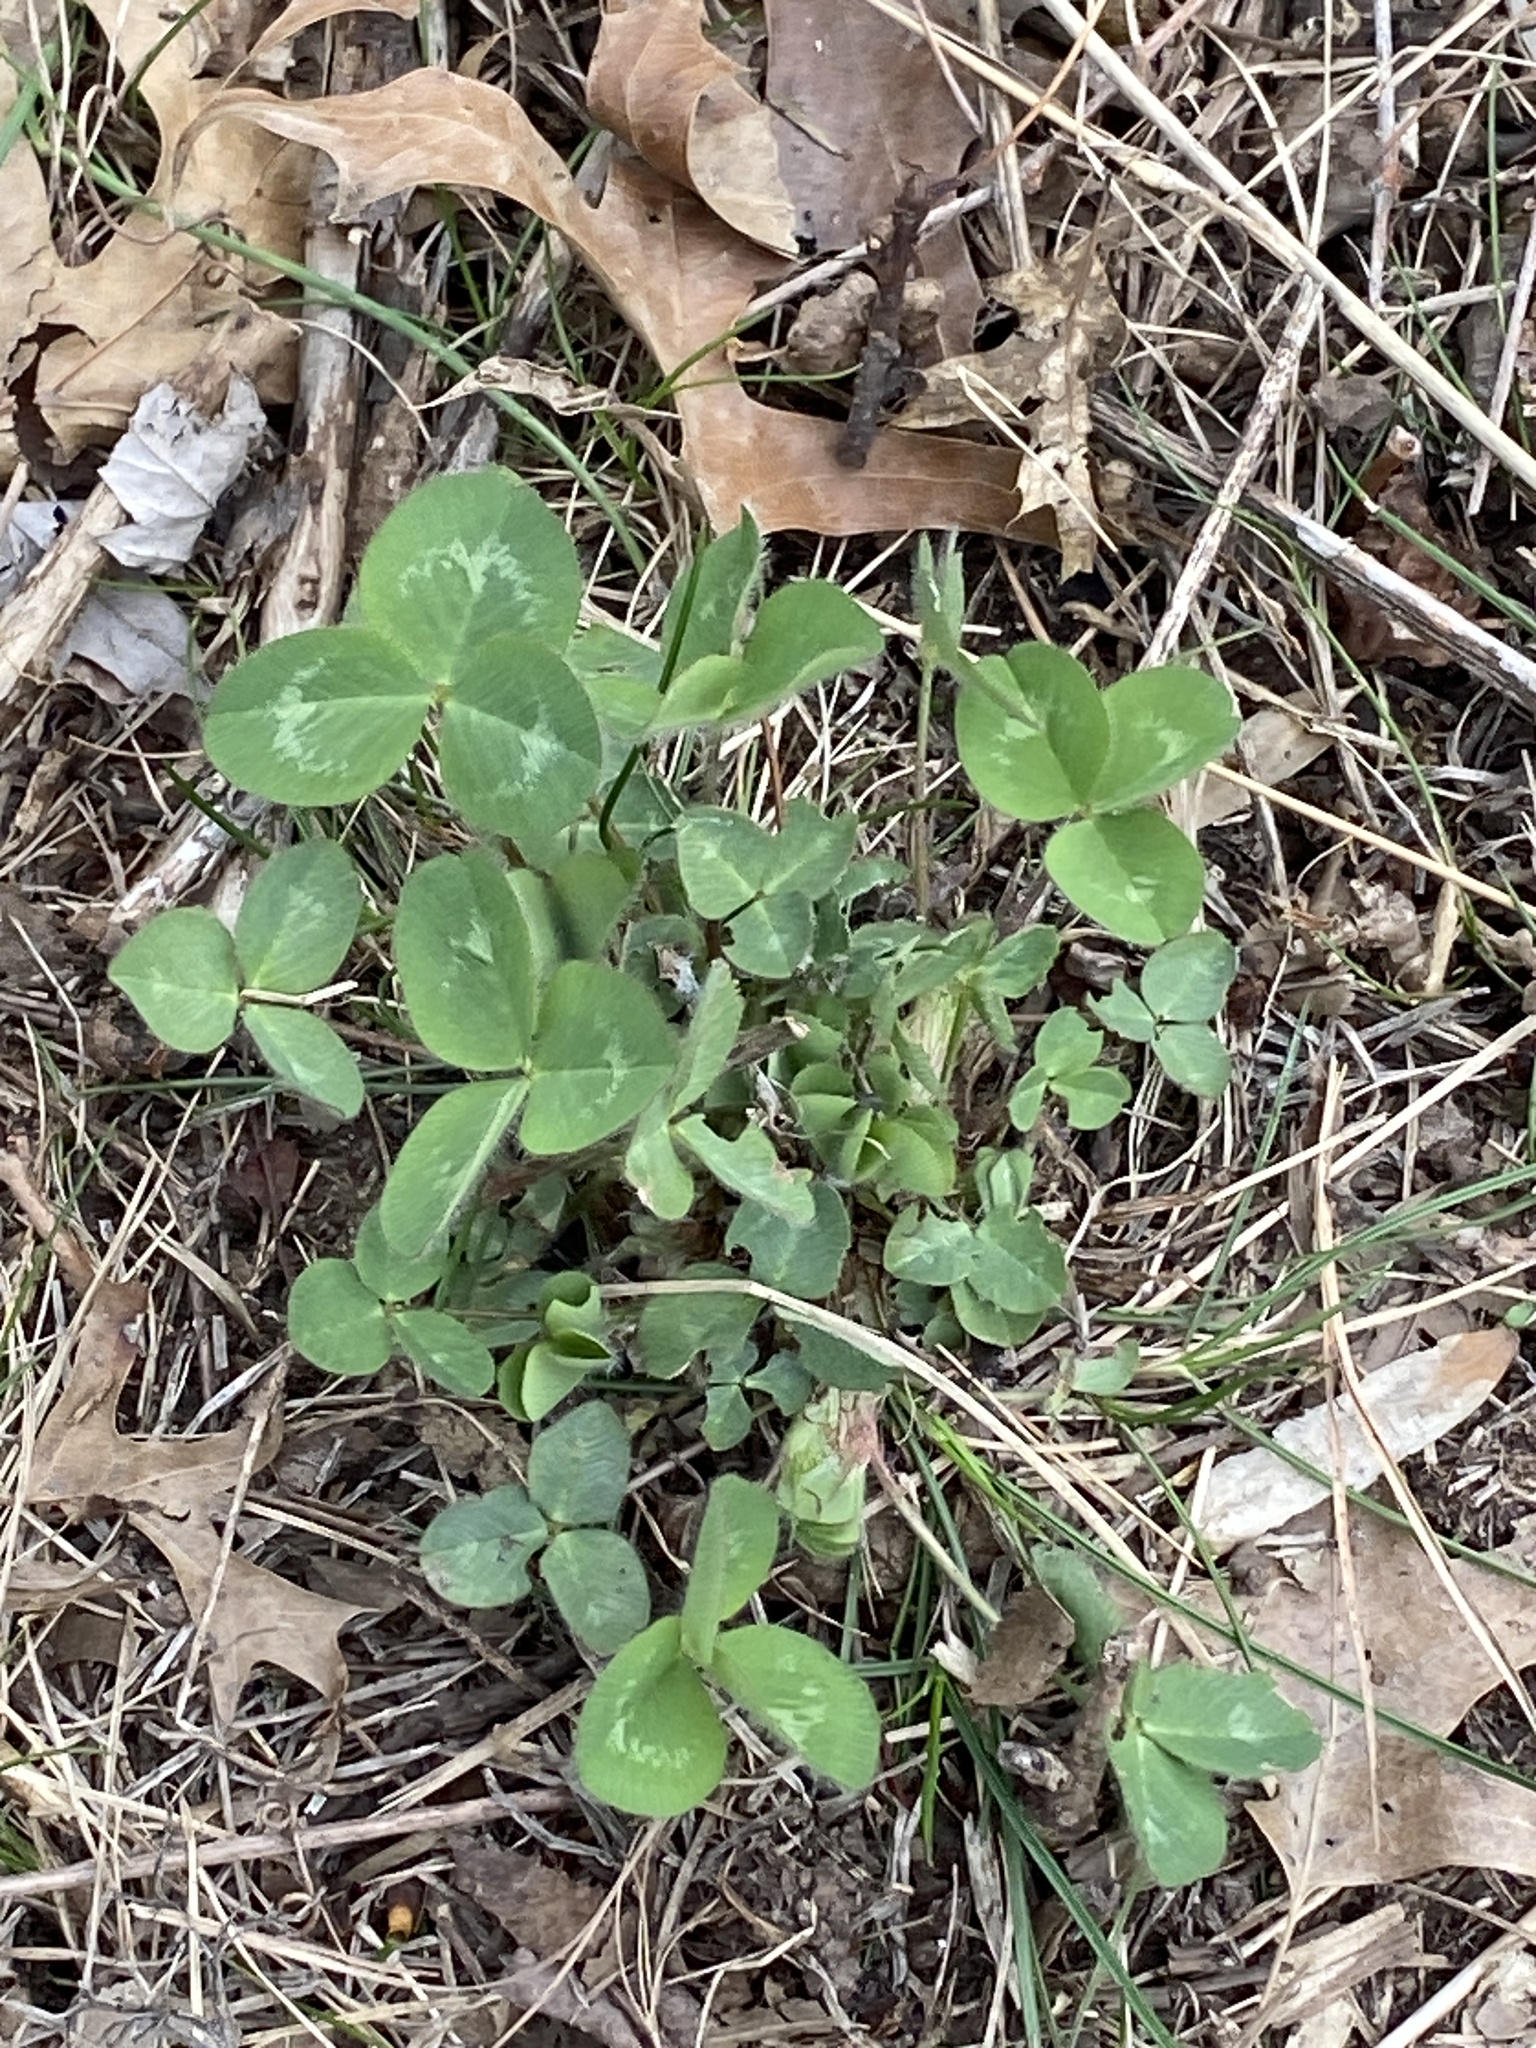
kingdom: Plantae
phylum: Tracheophyta
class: Magnoliopsida
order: Fabales
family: Fabaceae
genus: Trifolium
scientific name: Trifolium pratense
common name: Red clover
